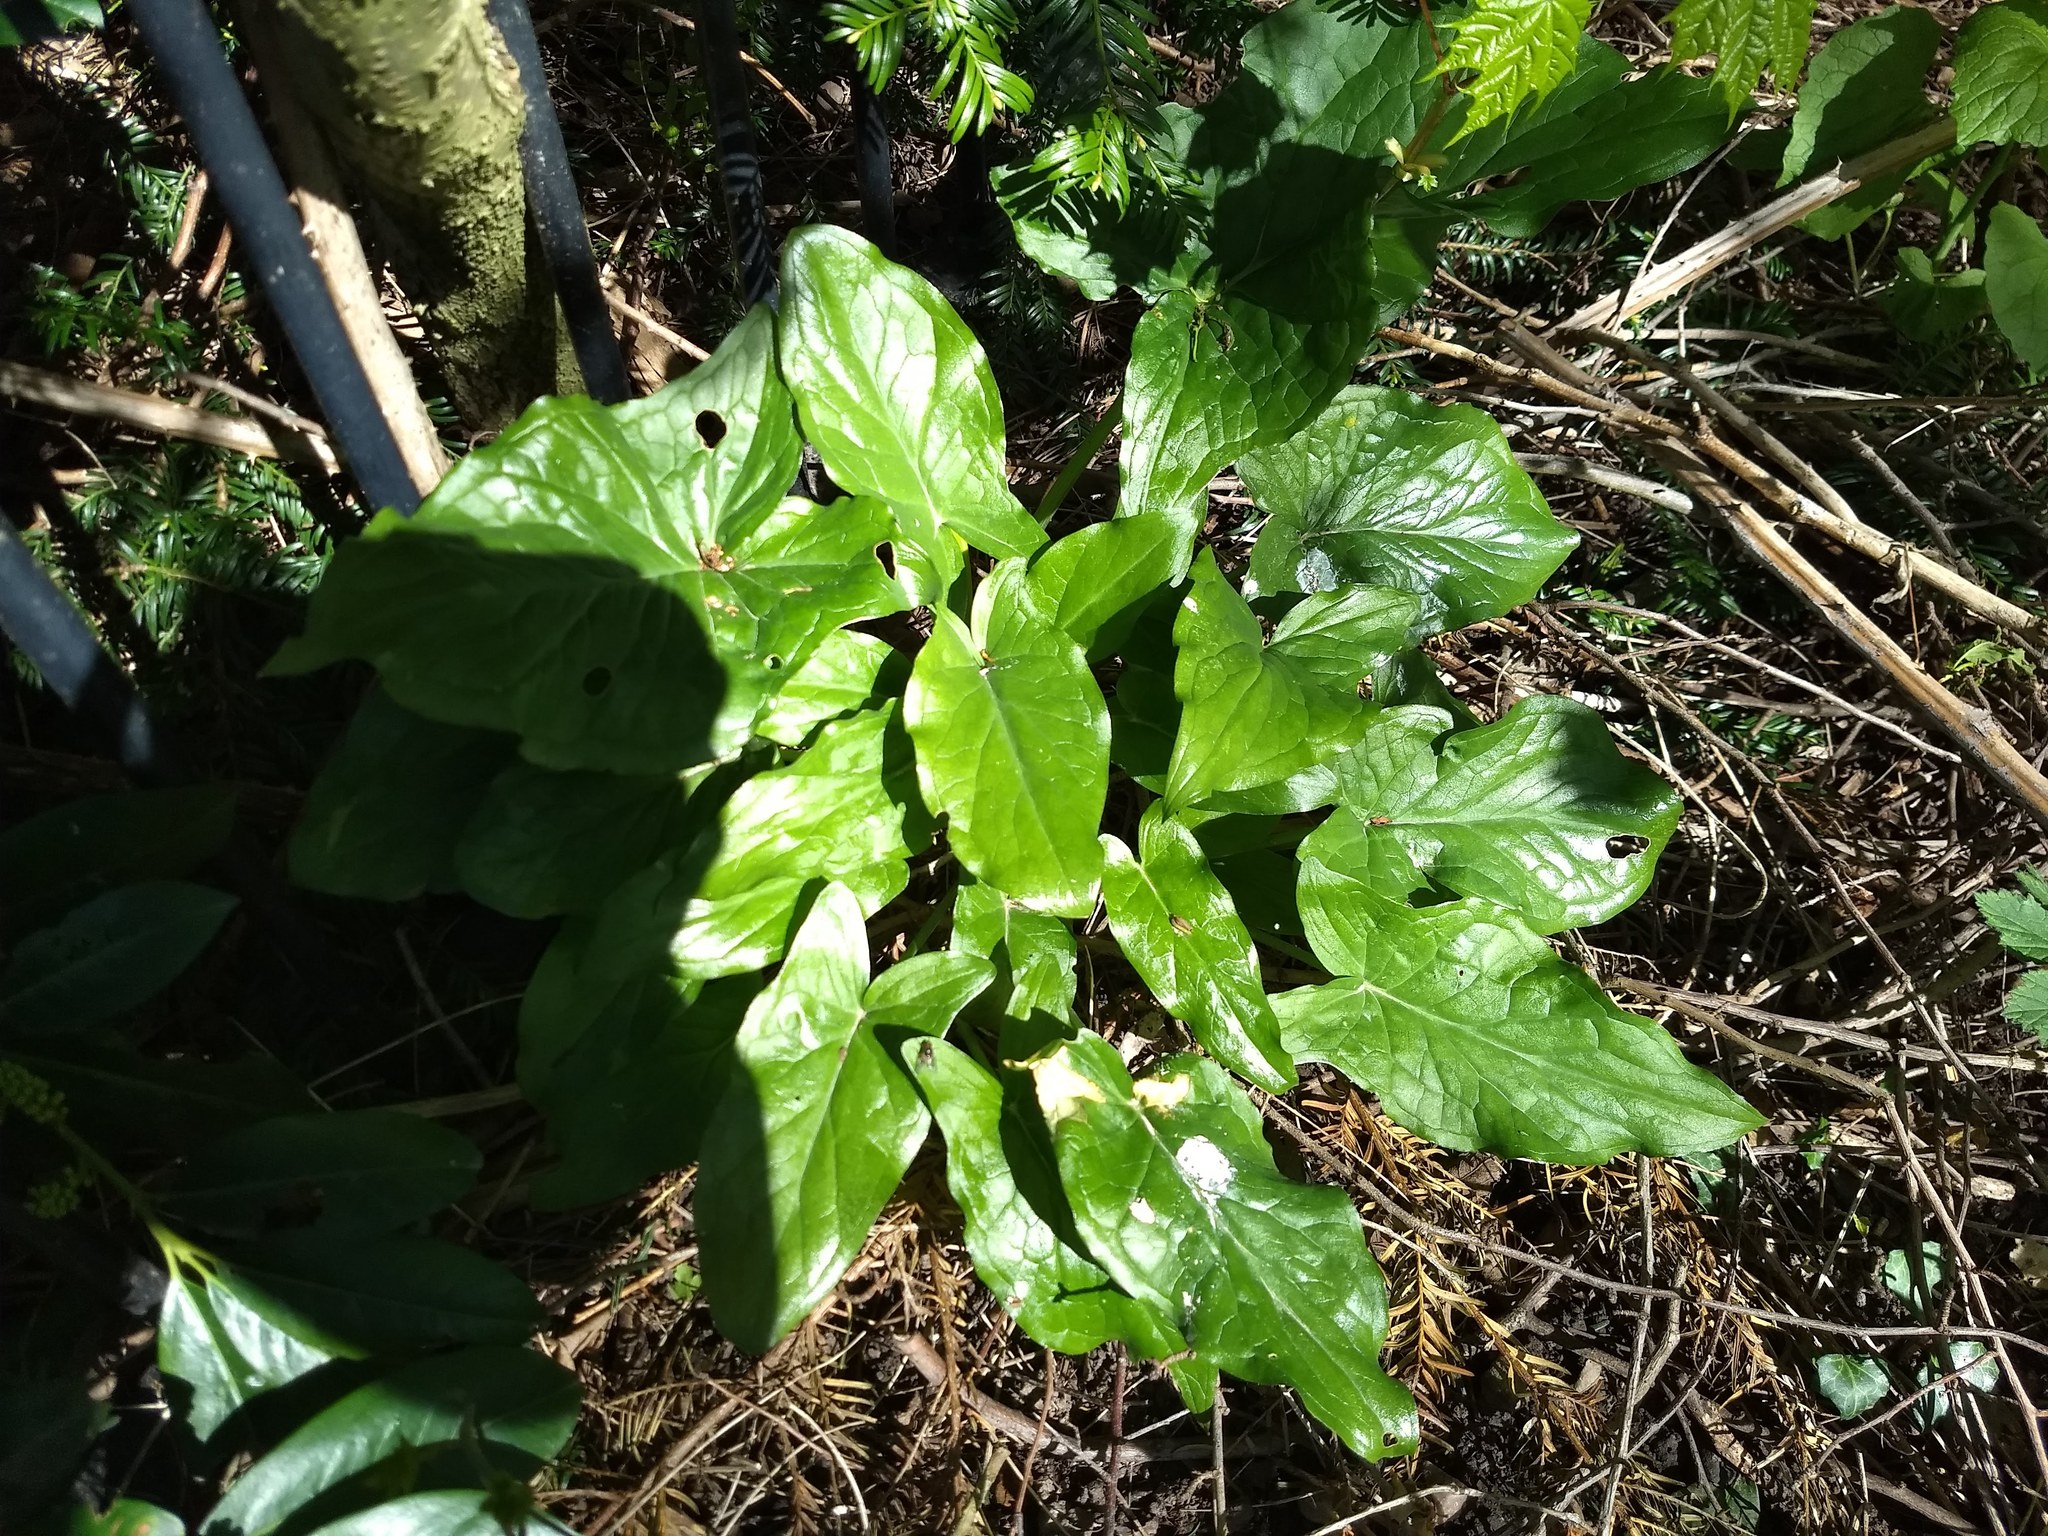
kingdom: Plantae
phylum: Tracheophyta
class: Liliopsida
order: Alismatales
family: Araceae
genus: Arum
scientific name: Arum maculatum
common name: Lords-and-ladies
